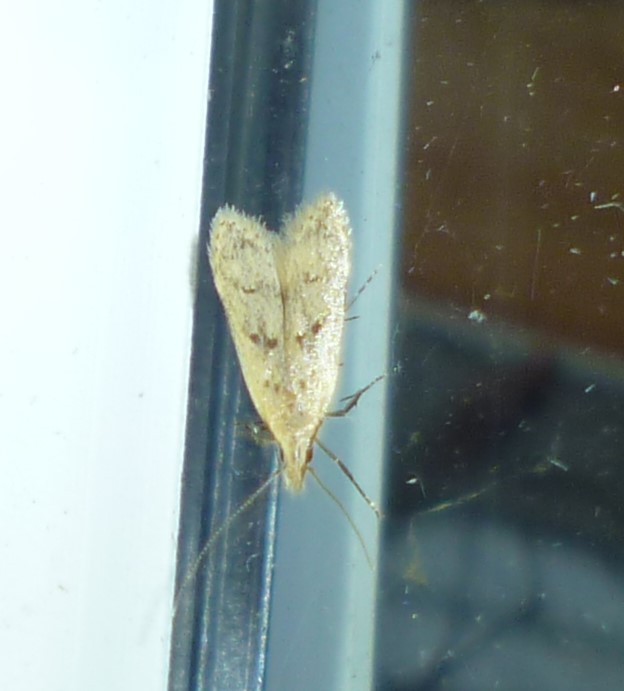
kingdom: Animalia
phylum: Arthropoda
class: Insecta
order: Lepidoptera
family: Gelechiidae
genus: Dichomeris
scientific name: Dichomeris punctipennella
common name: Many-spotted dichomeris moth
